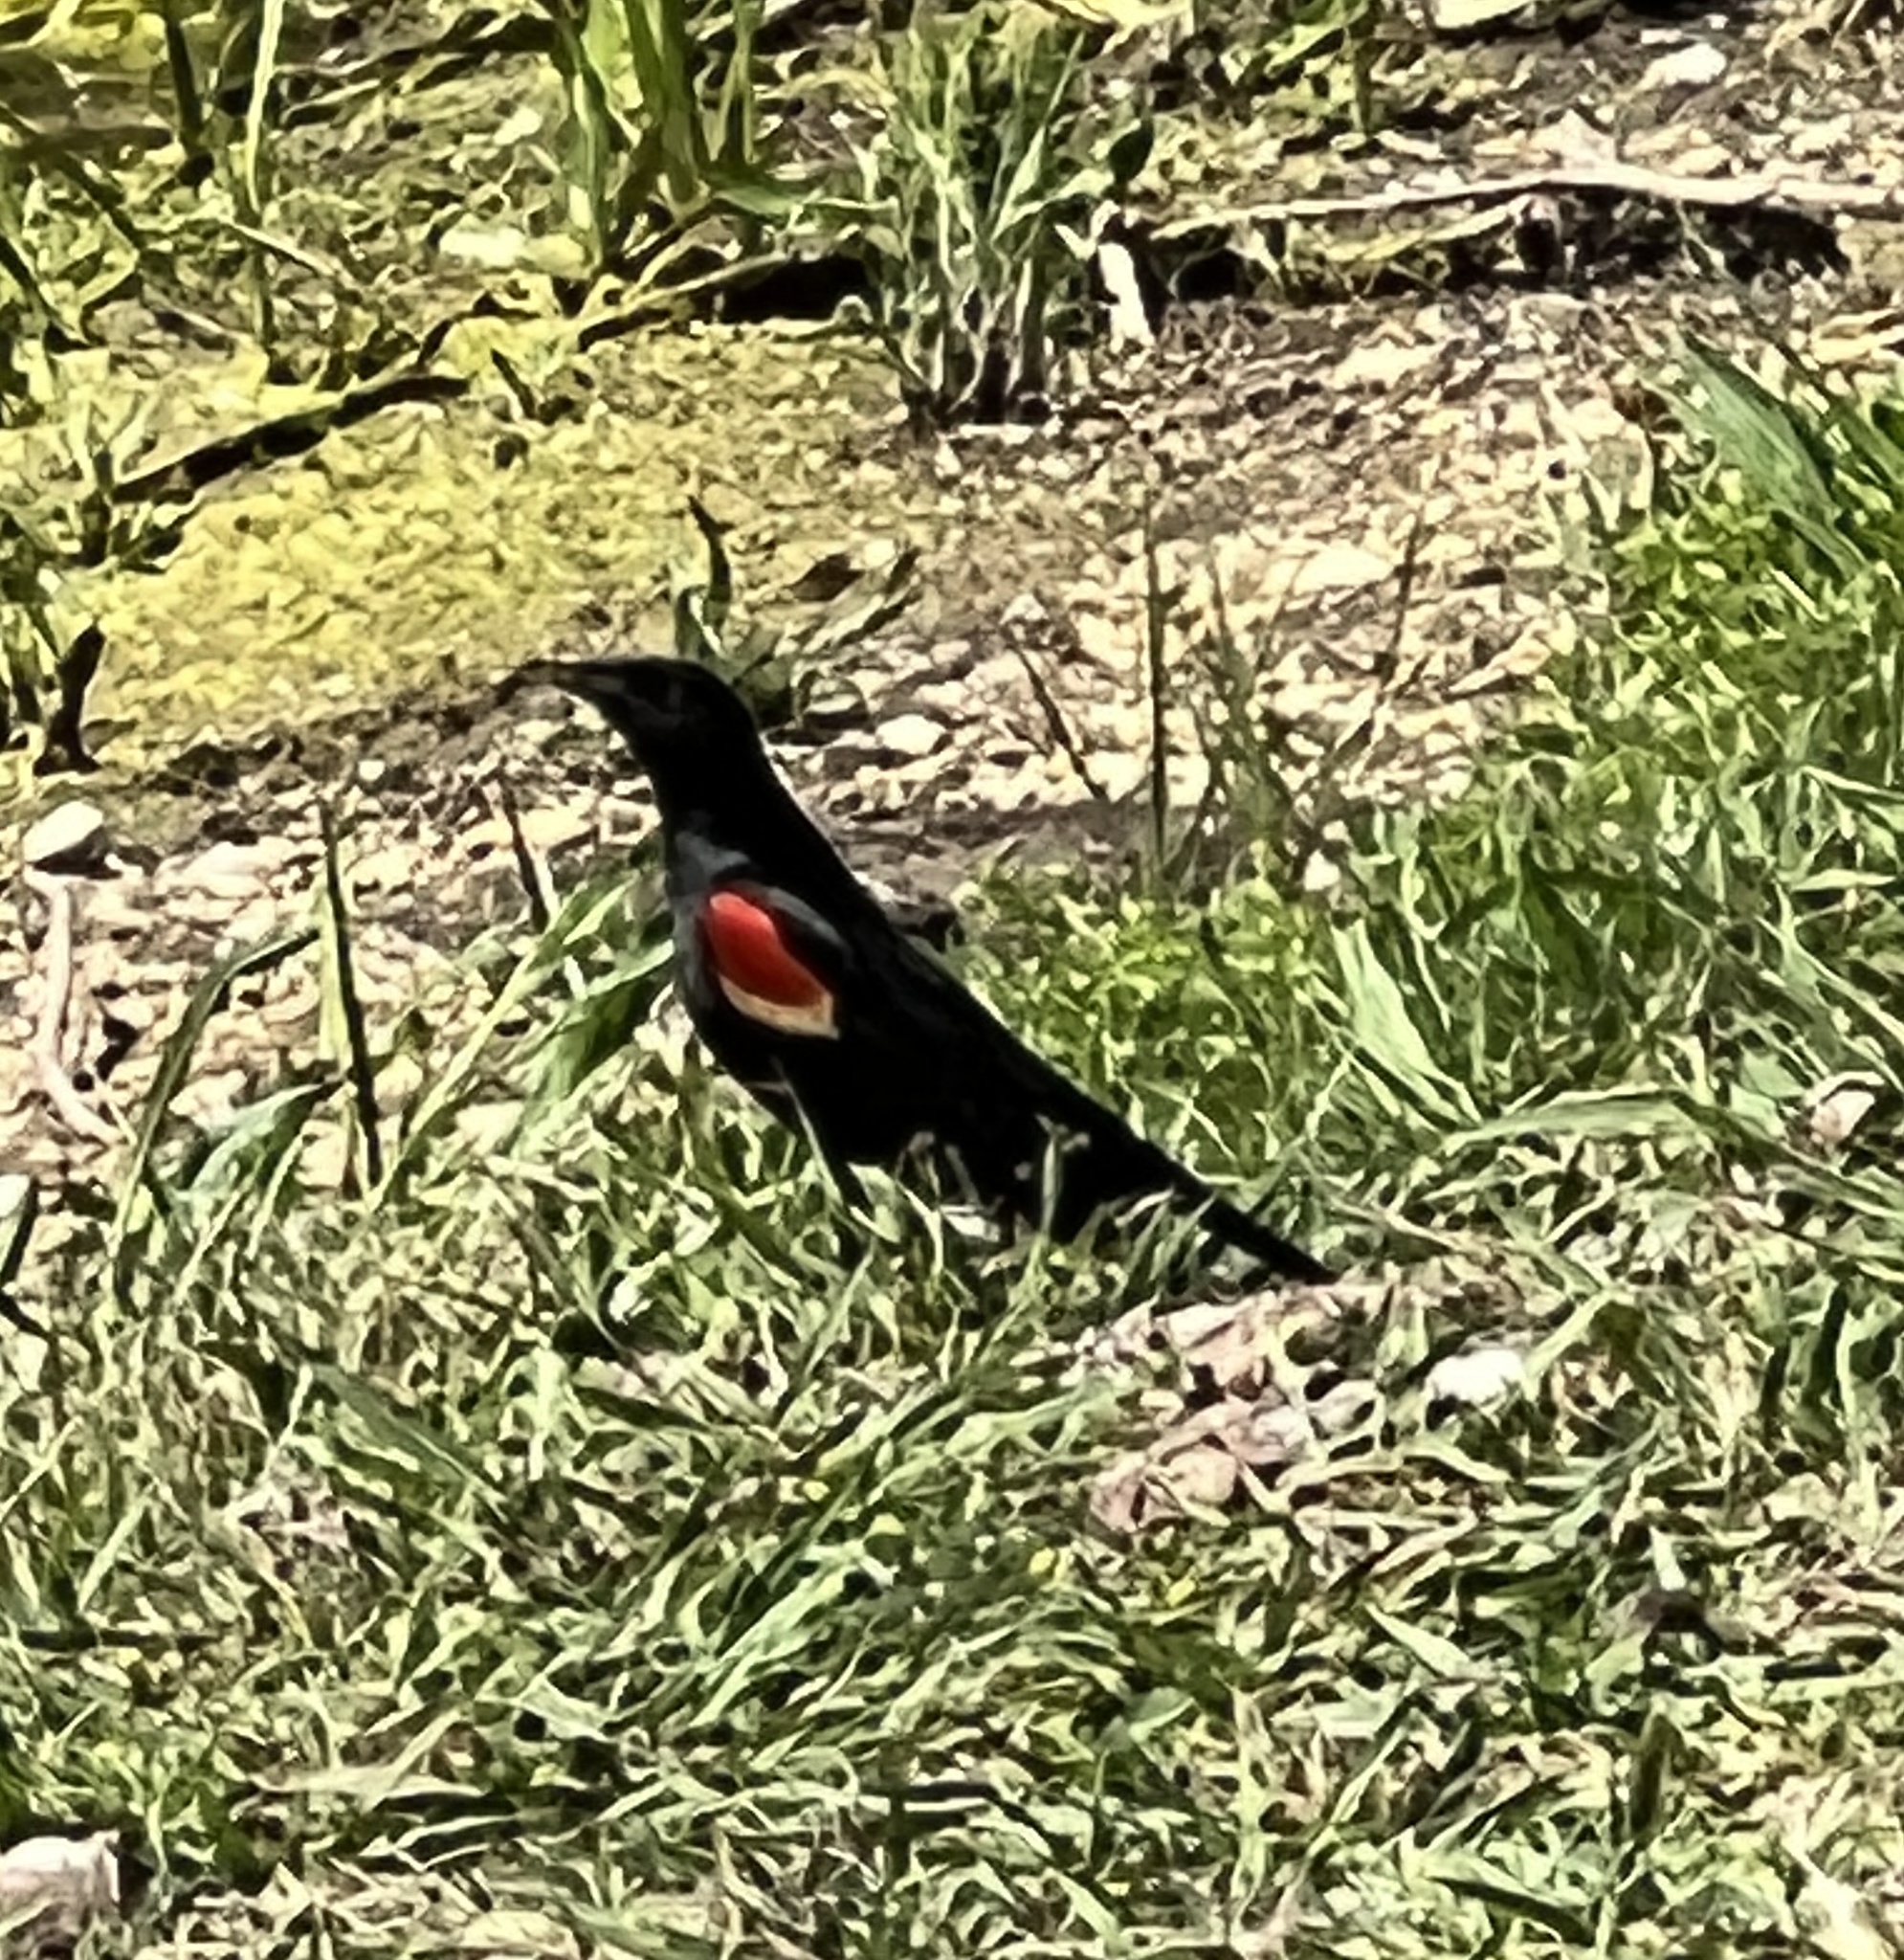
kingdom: Animalia
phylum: Chordata
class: Aves
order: Passeriformes
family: Icteridae
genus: Agelaius
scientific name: Agelaius phoeniceus
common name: Red-winged blackbird
